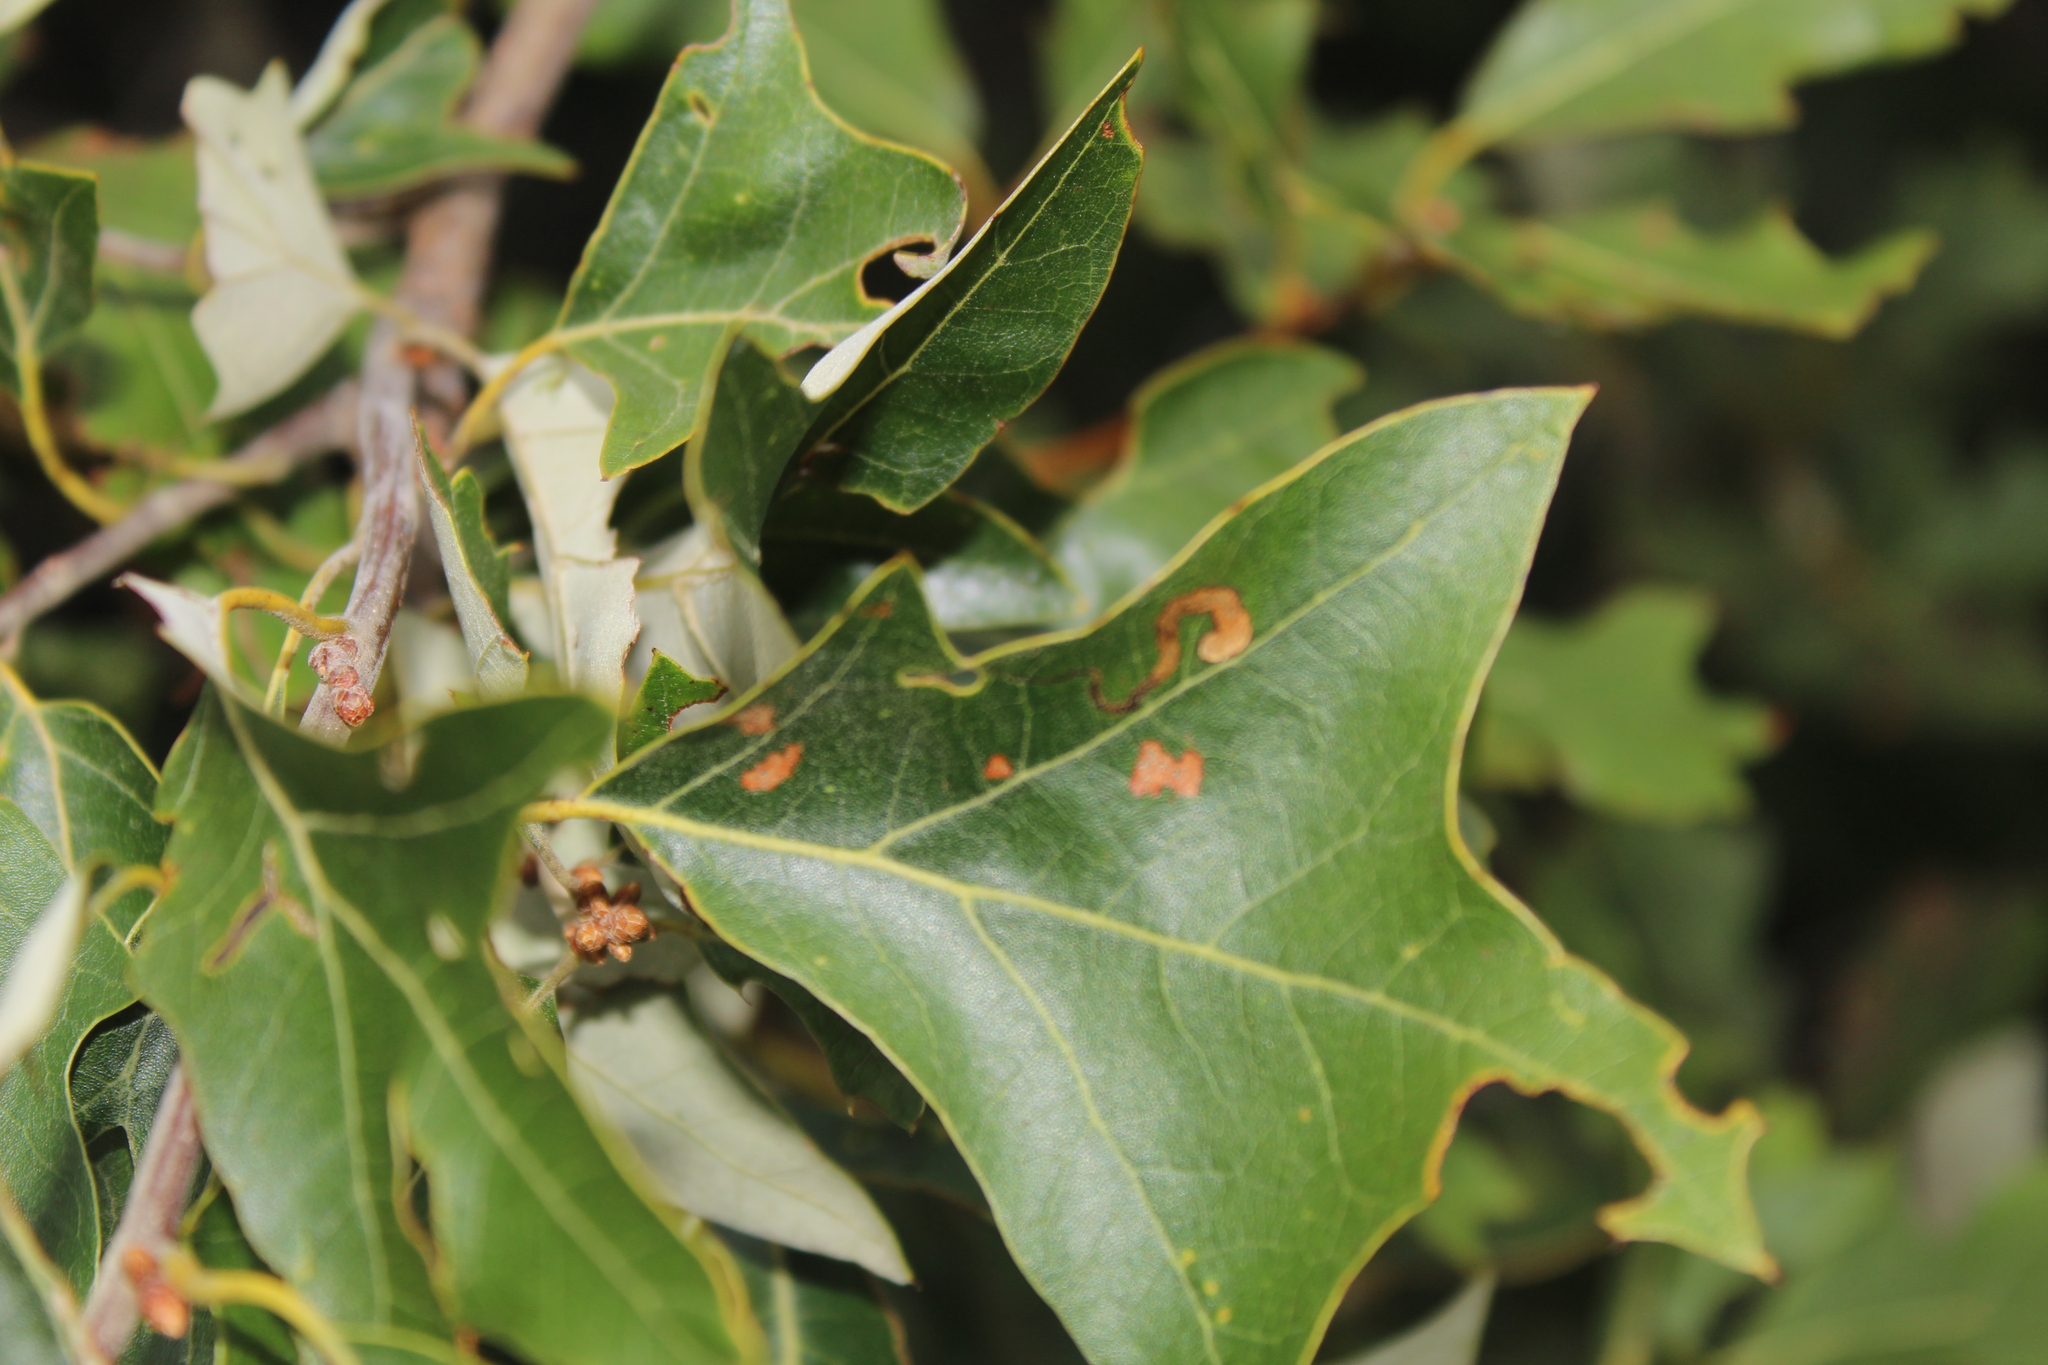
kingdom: Plantae
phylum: Tracheophyta
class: Magnoliopsida
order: Fagales
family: Fagaceae
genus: Quercus
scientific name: Quercus ilicifolia
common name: Bear oak
